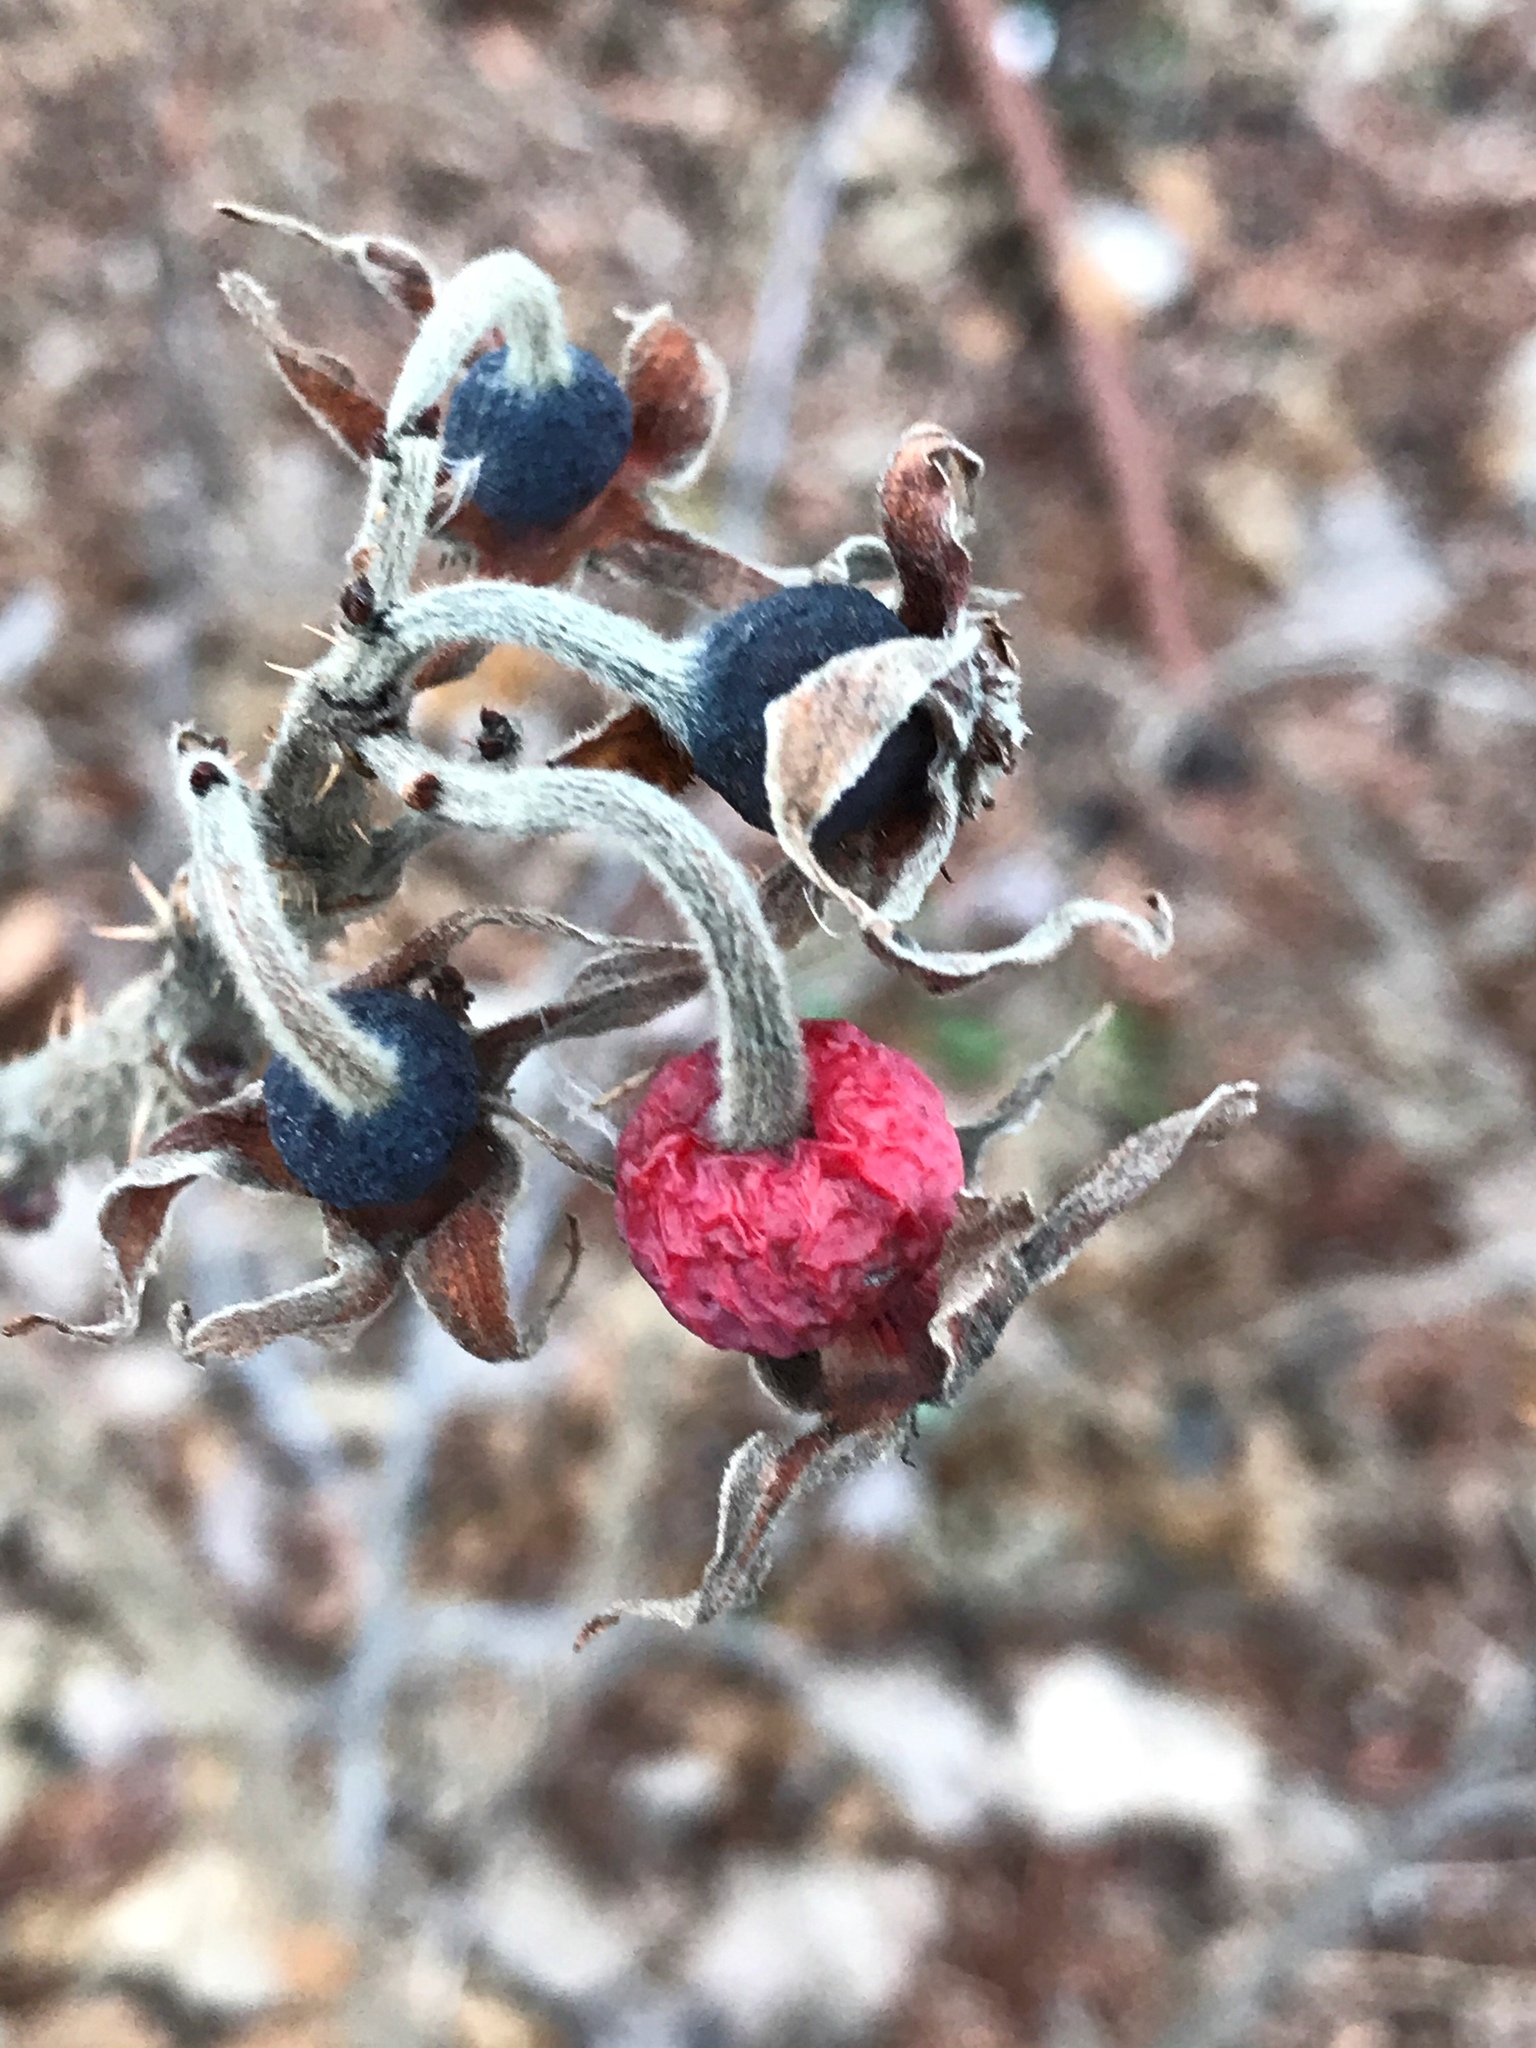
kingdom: Plantae
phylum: Tracheophyta
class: Magnoliopsida
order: Rosales
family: Rosaceae
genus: Rosa
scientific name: Rosa rugosa
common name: Japanese rose
